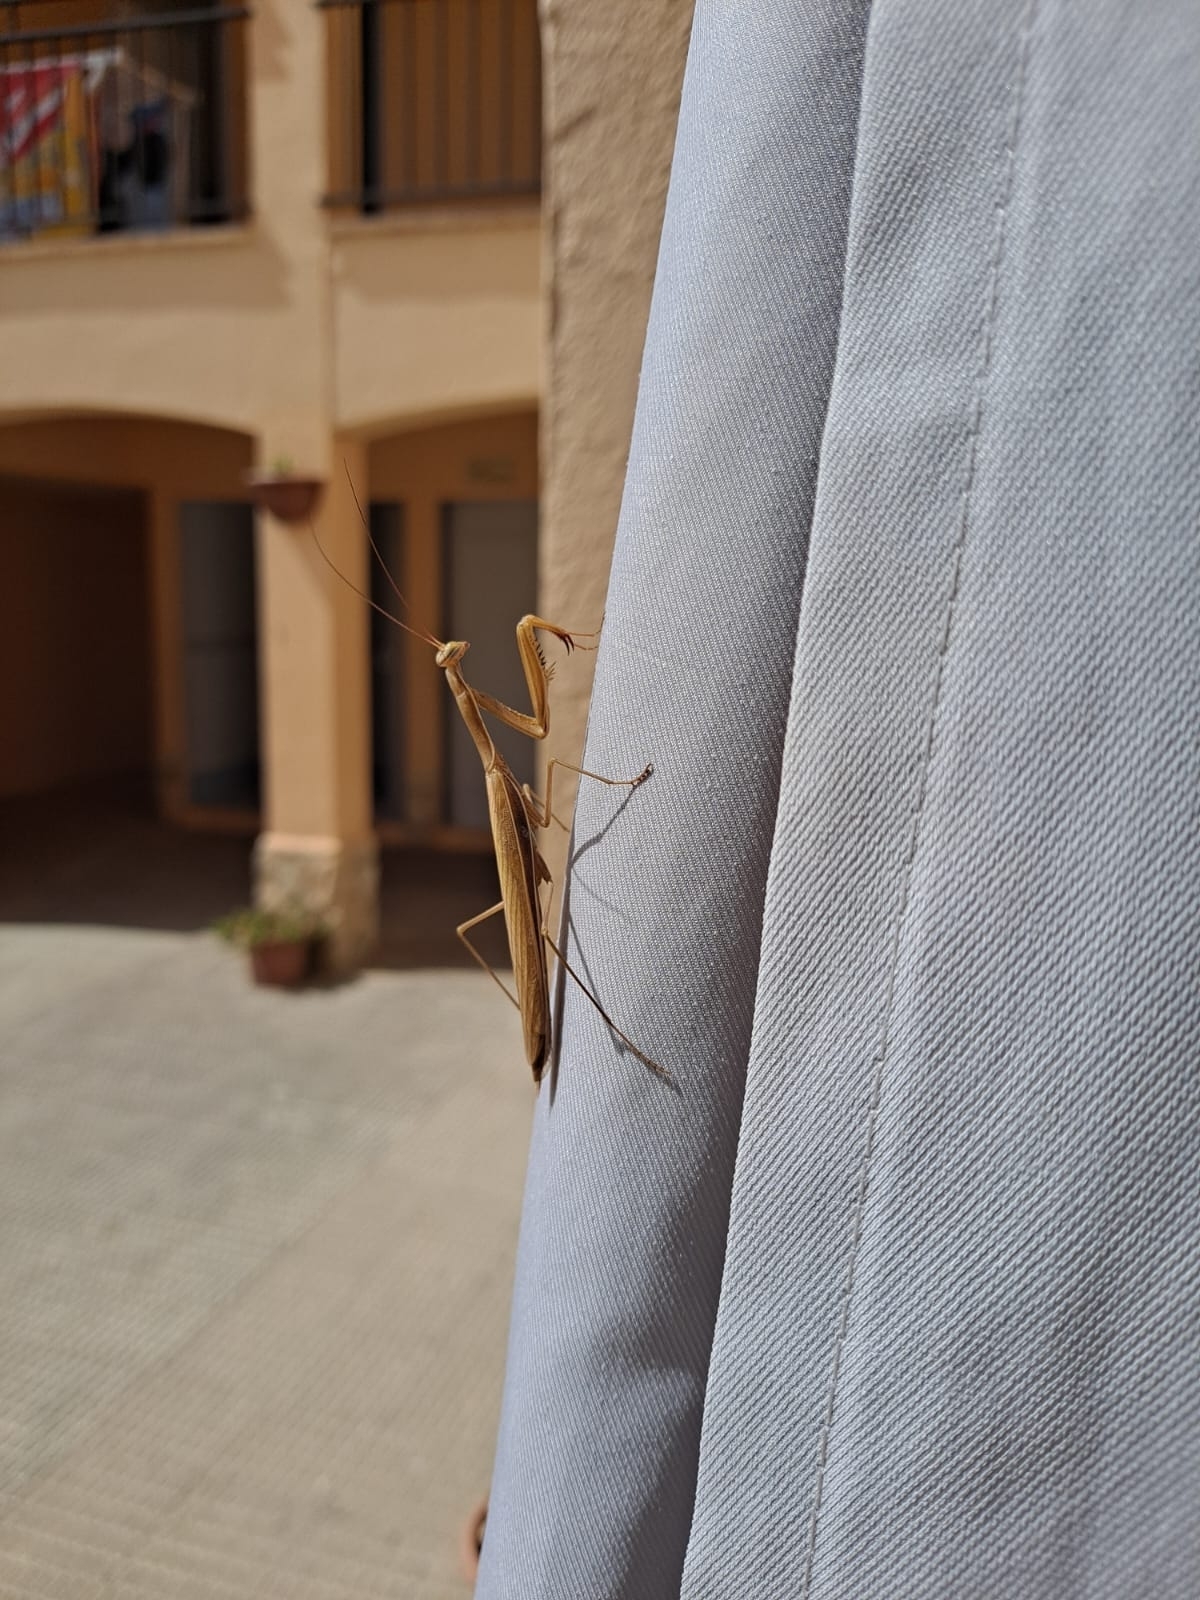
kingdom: Animalia
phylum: Arthropoda
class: Insecta
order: Mantodea
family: Mantidae
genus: Mantis
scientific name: Mantis religiosa
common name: Praying mantis
